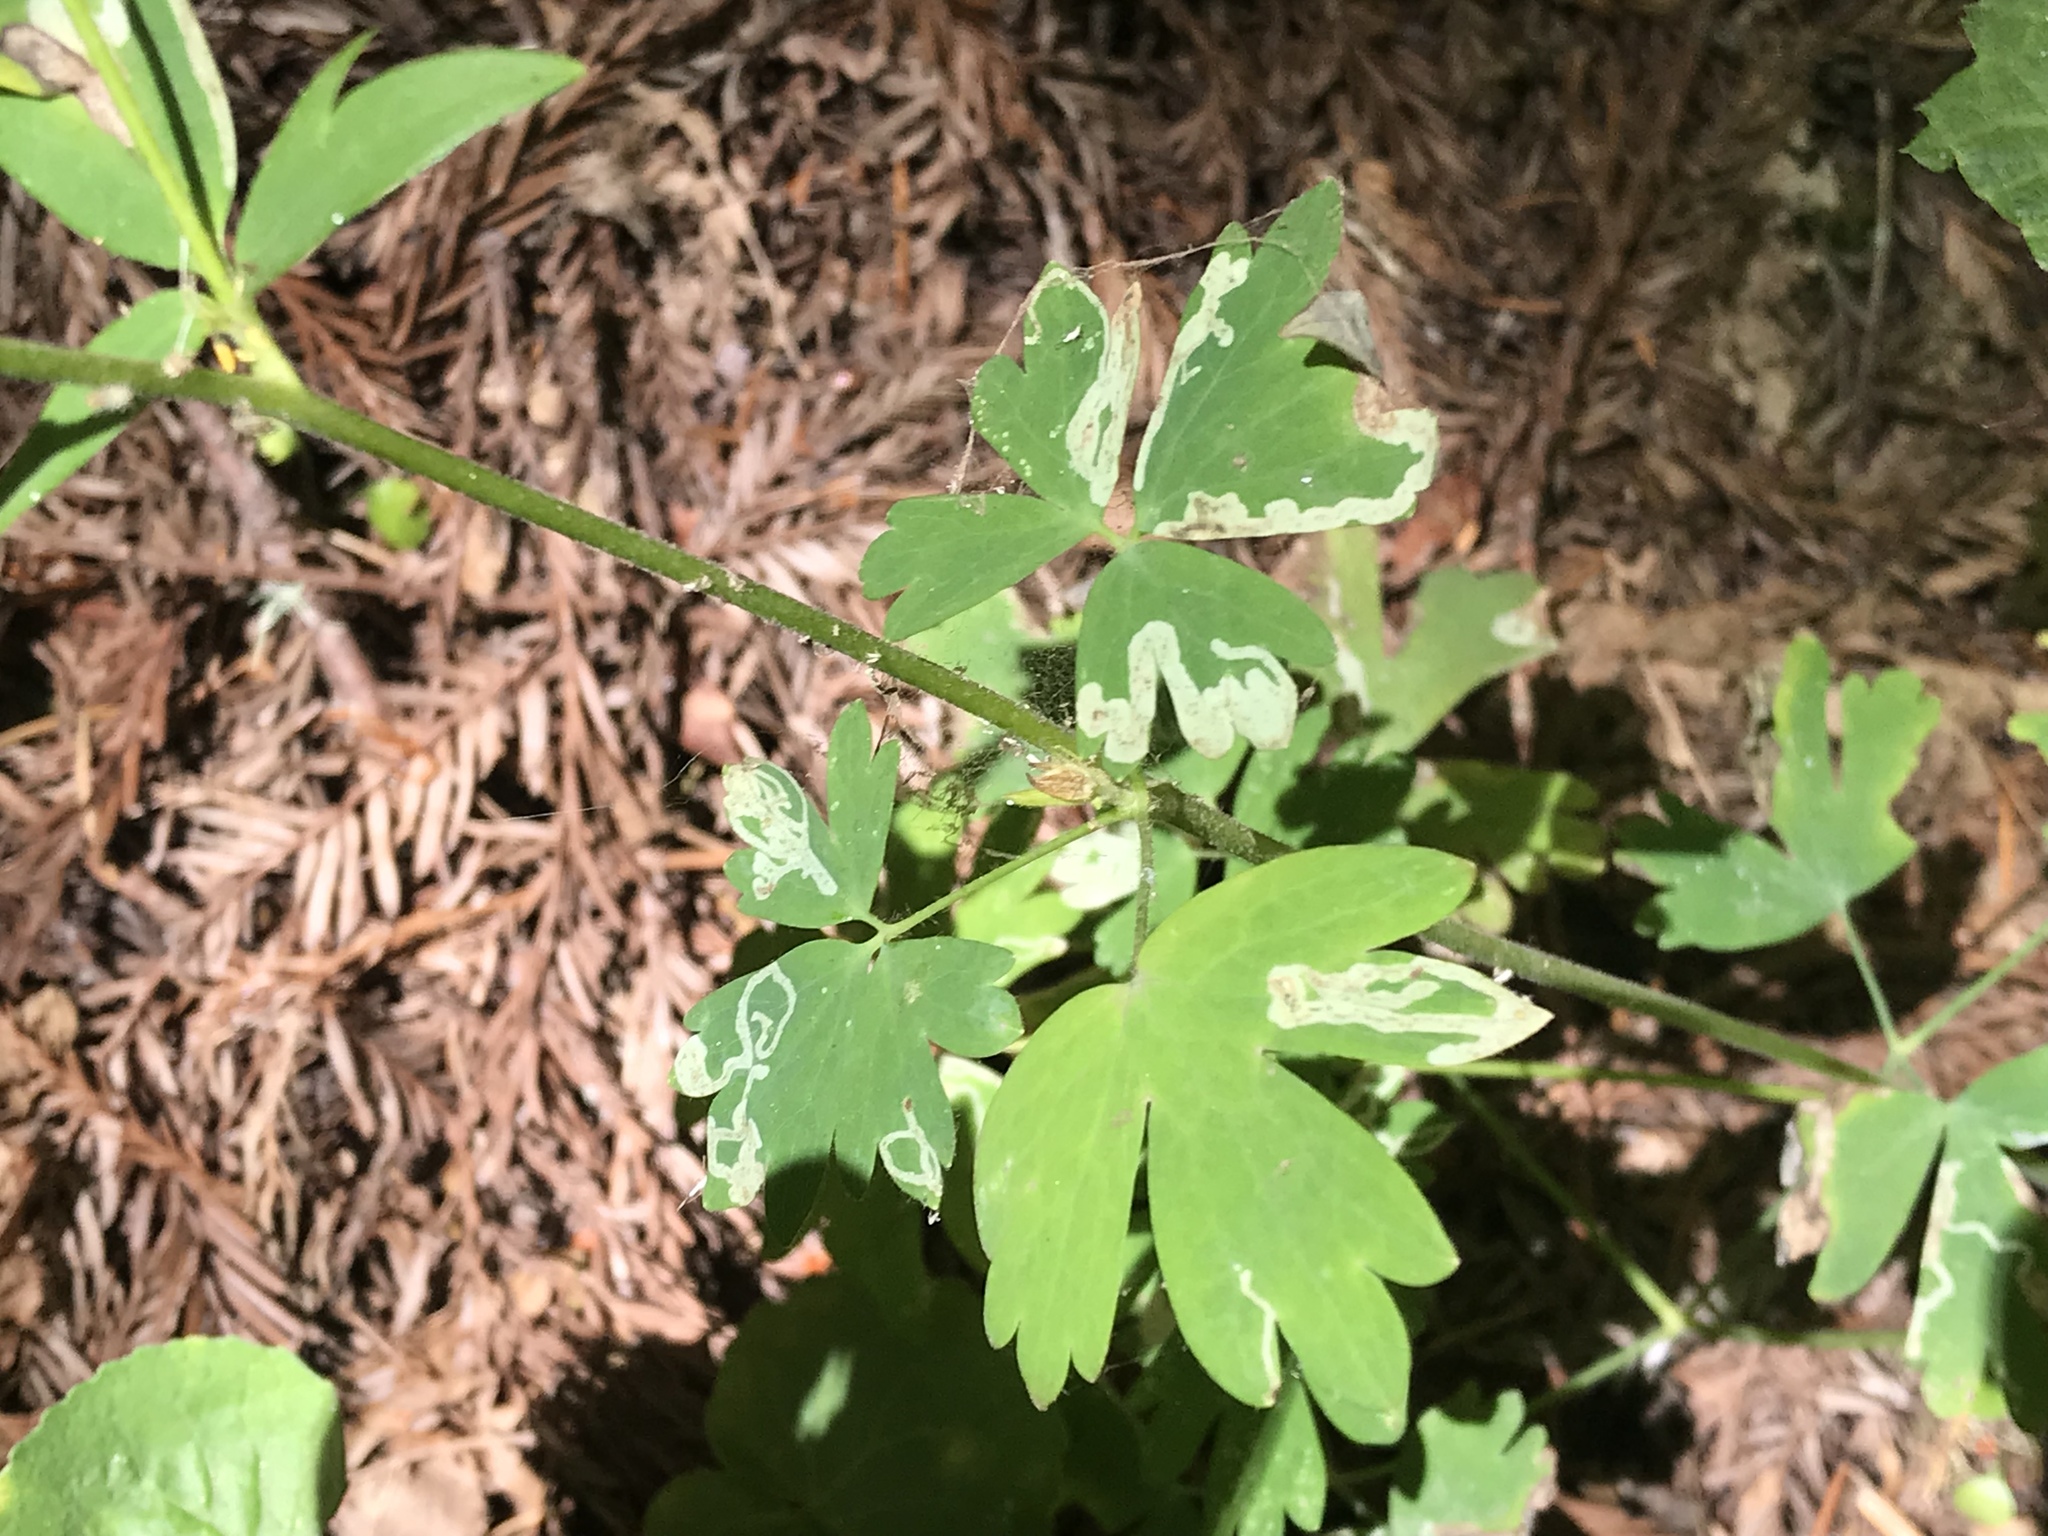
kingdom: Plantae
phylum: Tracheophyta
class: Magnoliopsida
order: Ranunculales
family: Ranunculaceae
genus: Aquilegia
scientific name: Aquilegia formosa
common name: Sitka columbine
